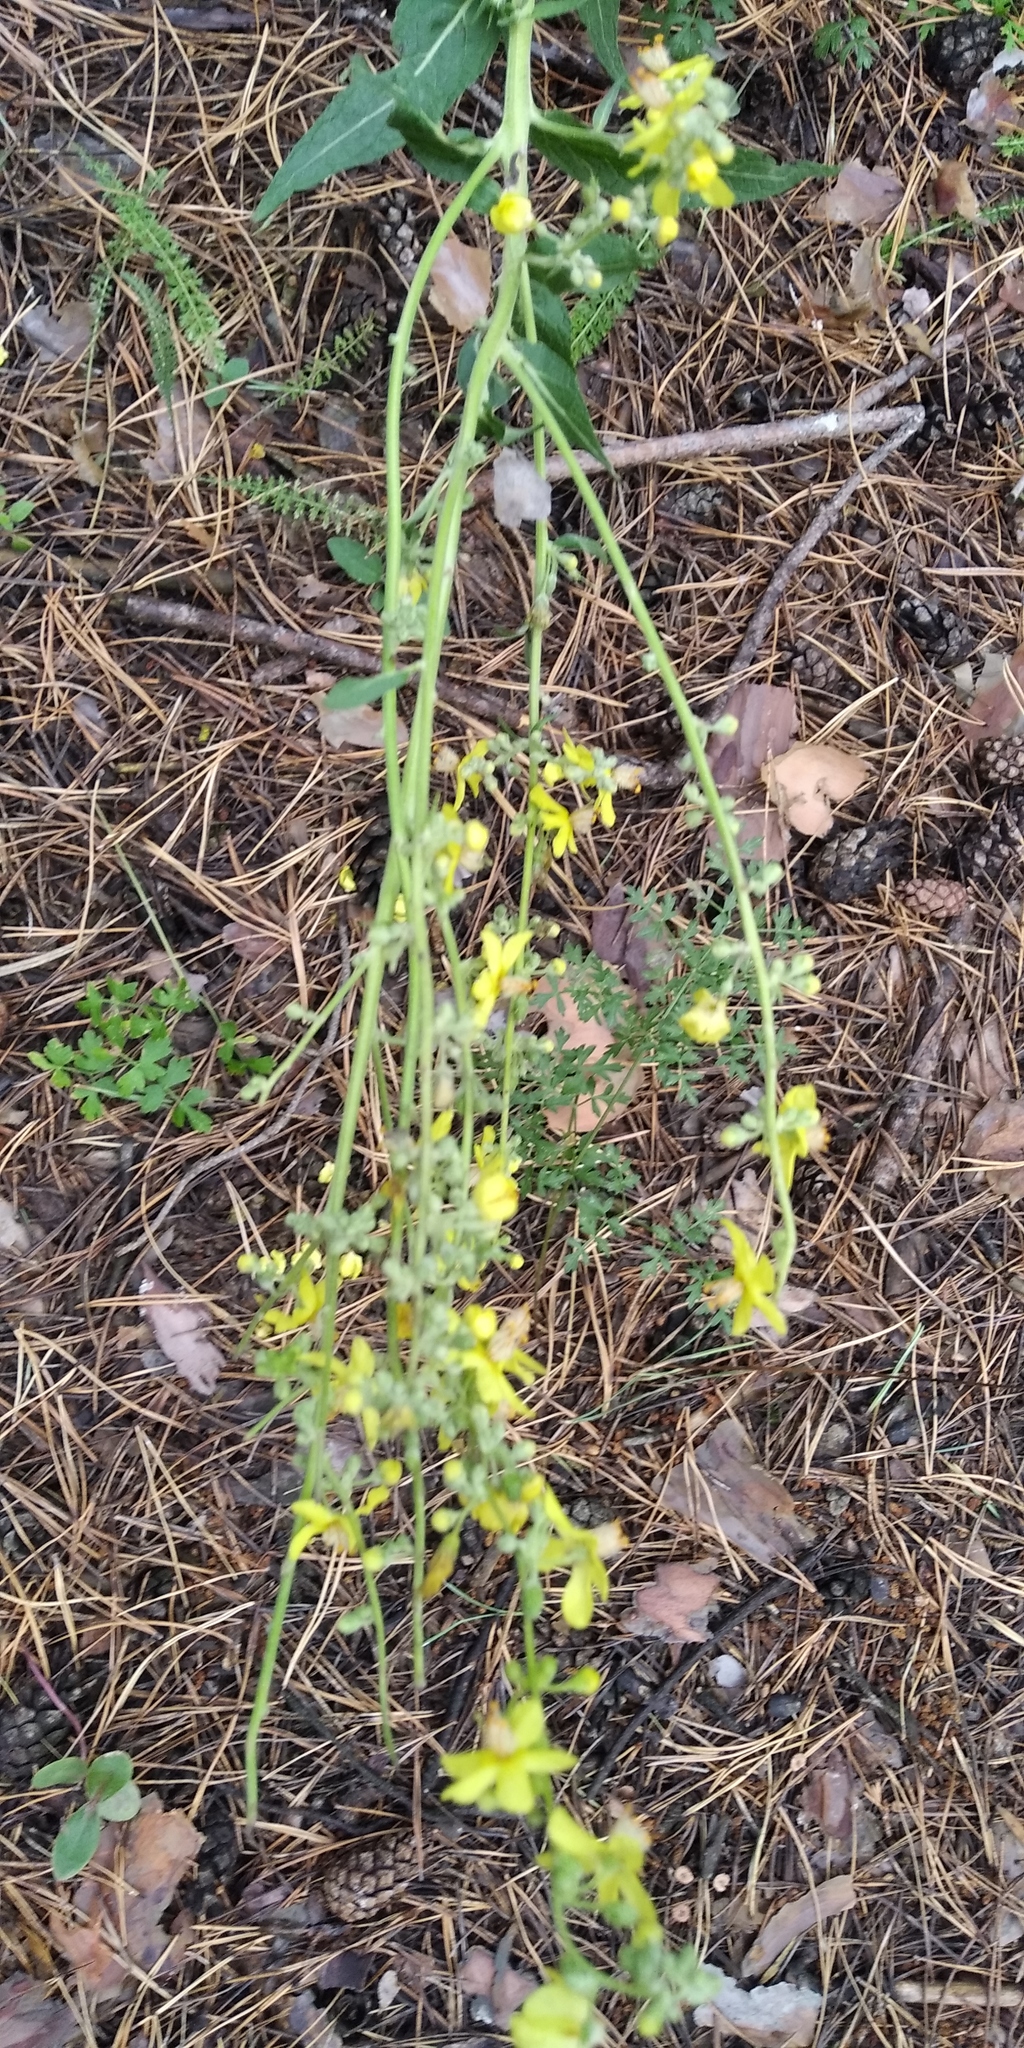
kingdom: Plantae
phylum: Tracheophyta
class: Magnoliopsida
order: Lamiales
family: Scrophulariaceae
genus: Verbascum
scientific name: Verbascum lychnitis
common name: White mullein
